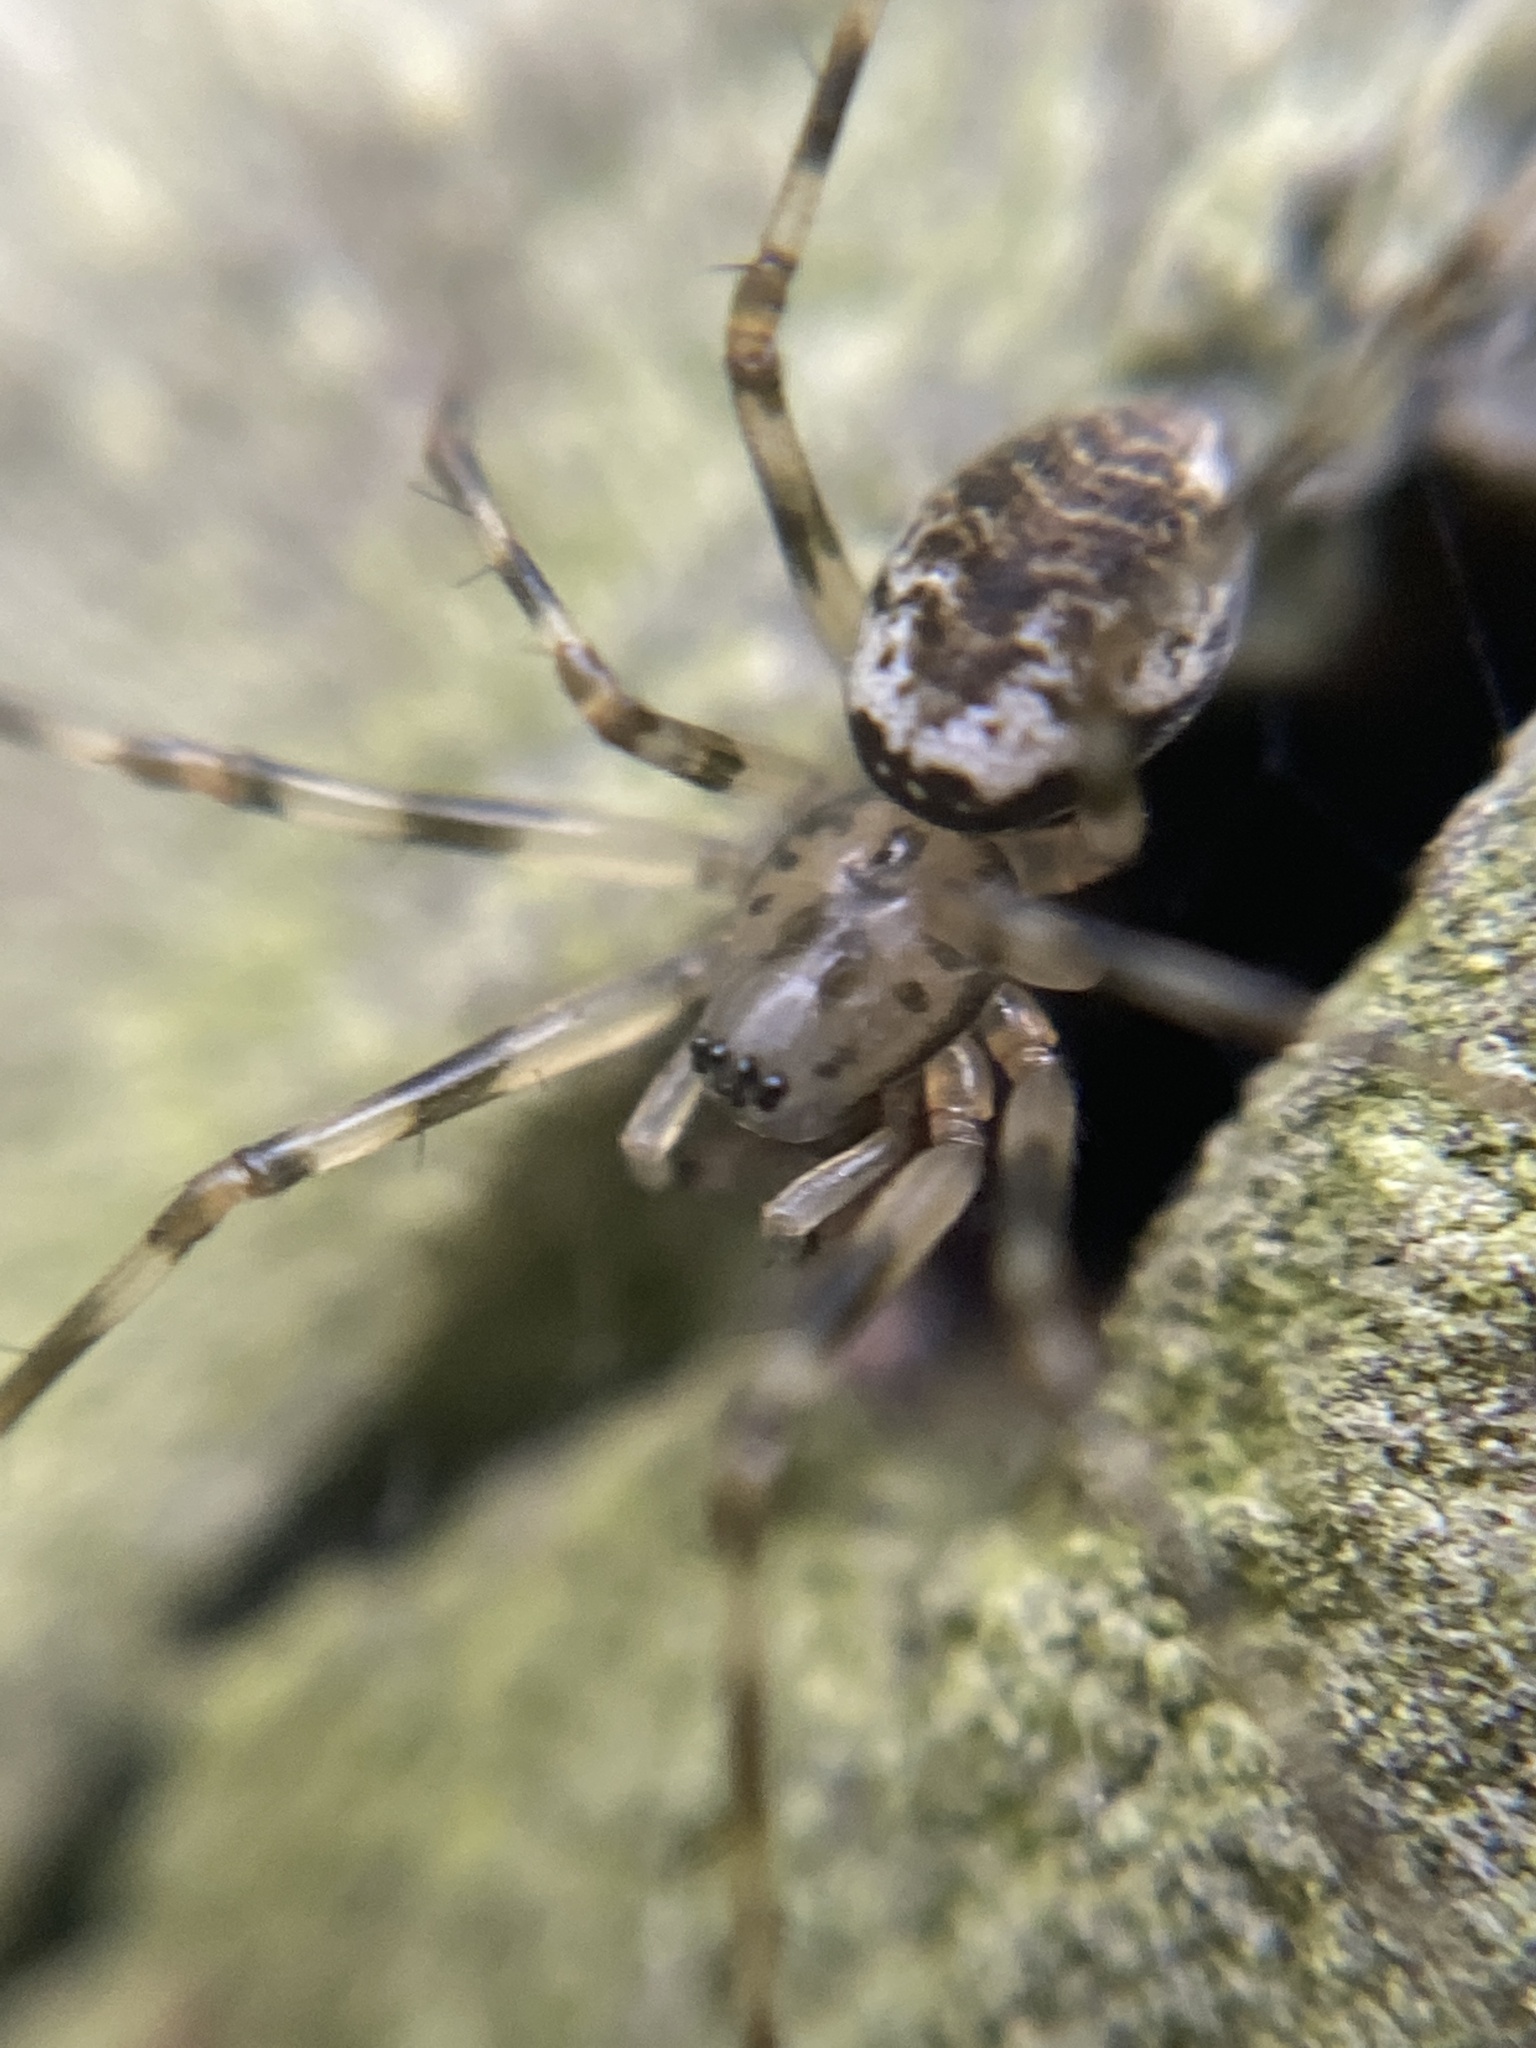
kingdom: Animalia
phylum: Arthropoda
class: Arachnida
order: Araneae
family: Linyphiidae
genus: Drapetisca
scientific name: Drapetisca socialis
